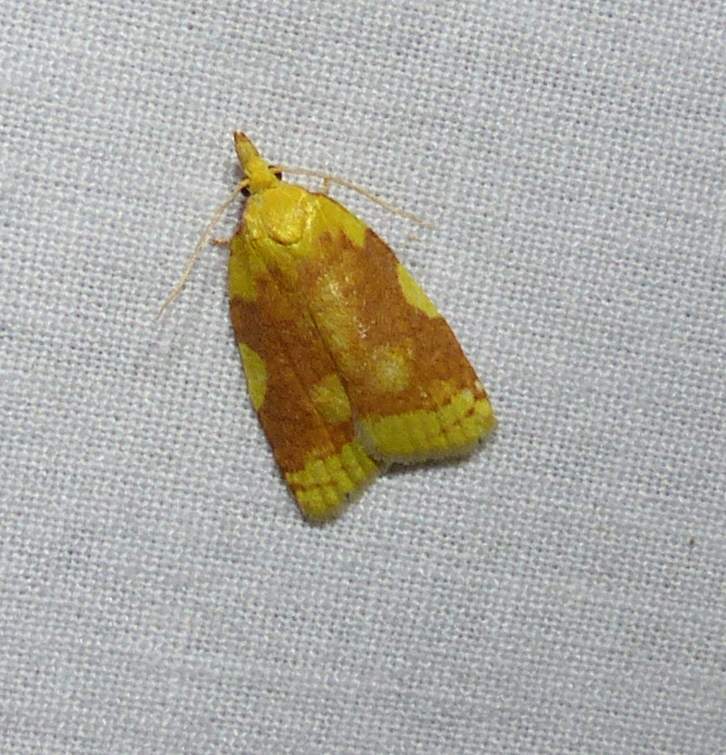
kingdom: Animalia
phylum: Arthropoda
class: Insecta
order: Lepidoptera
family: Tortricidae
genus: Cenopis
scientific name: Cenopis niveana
